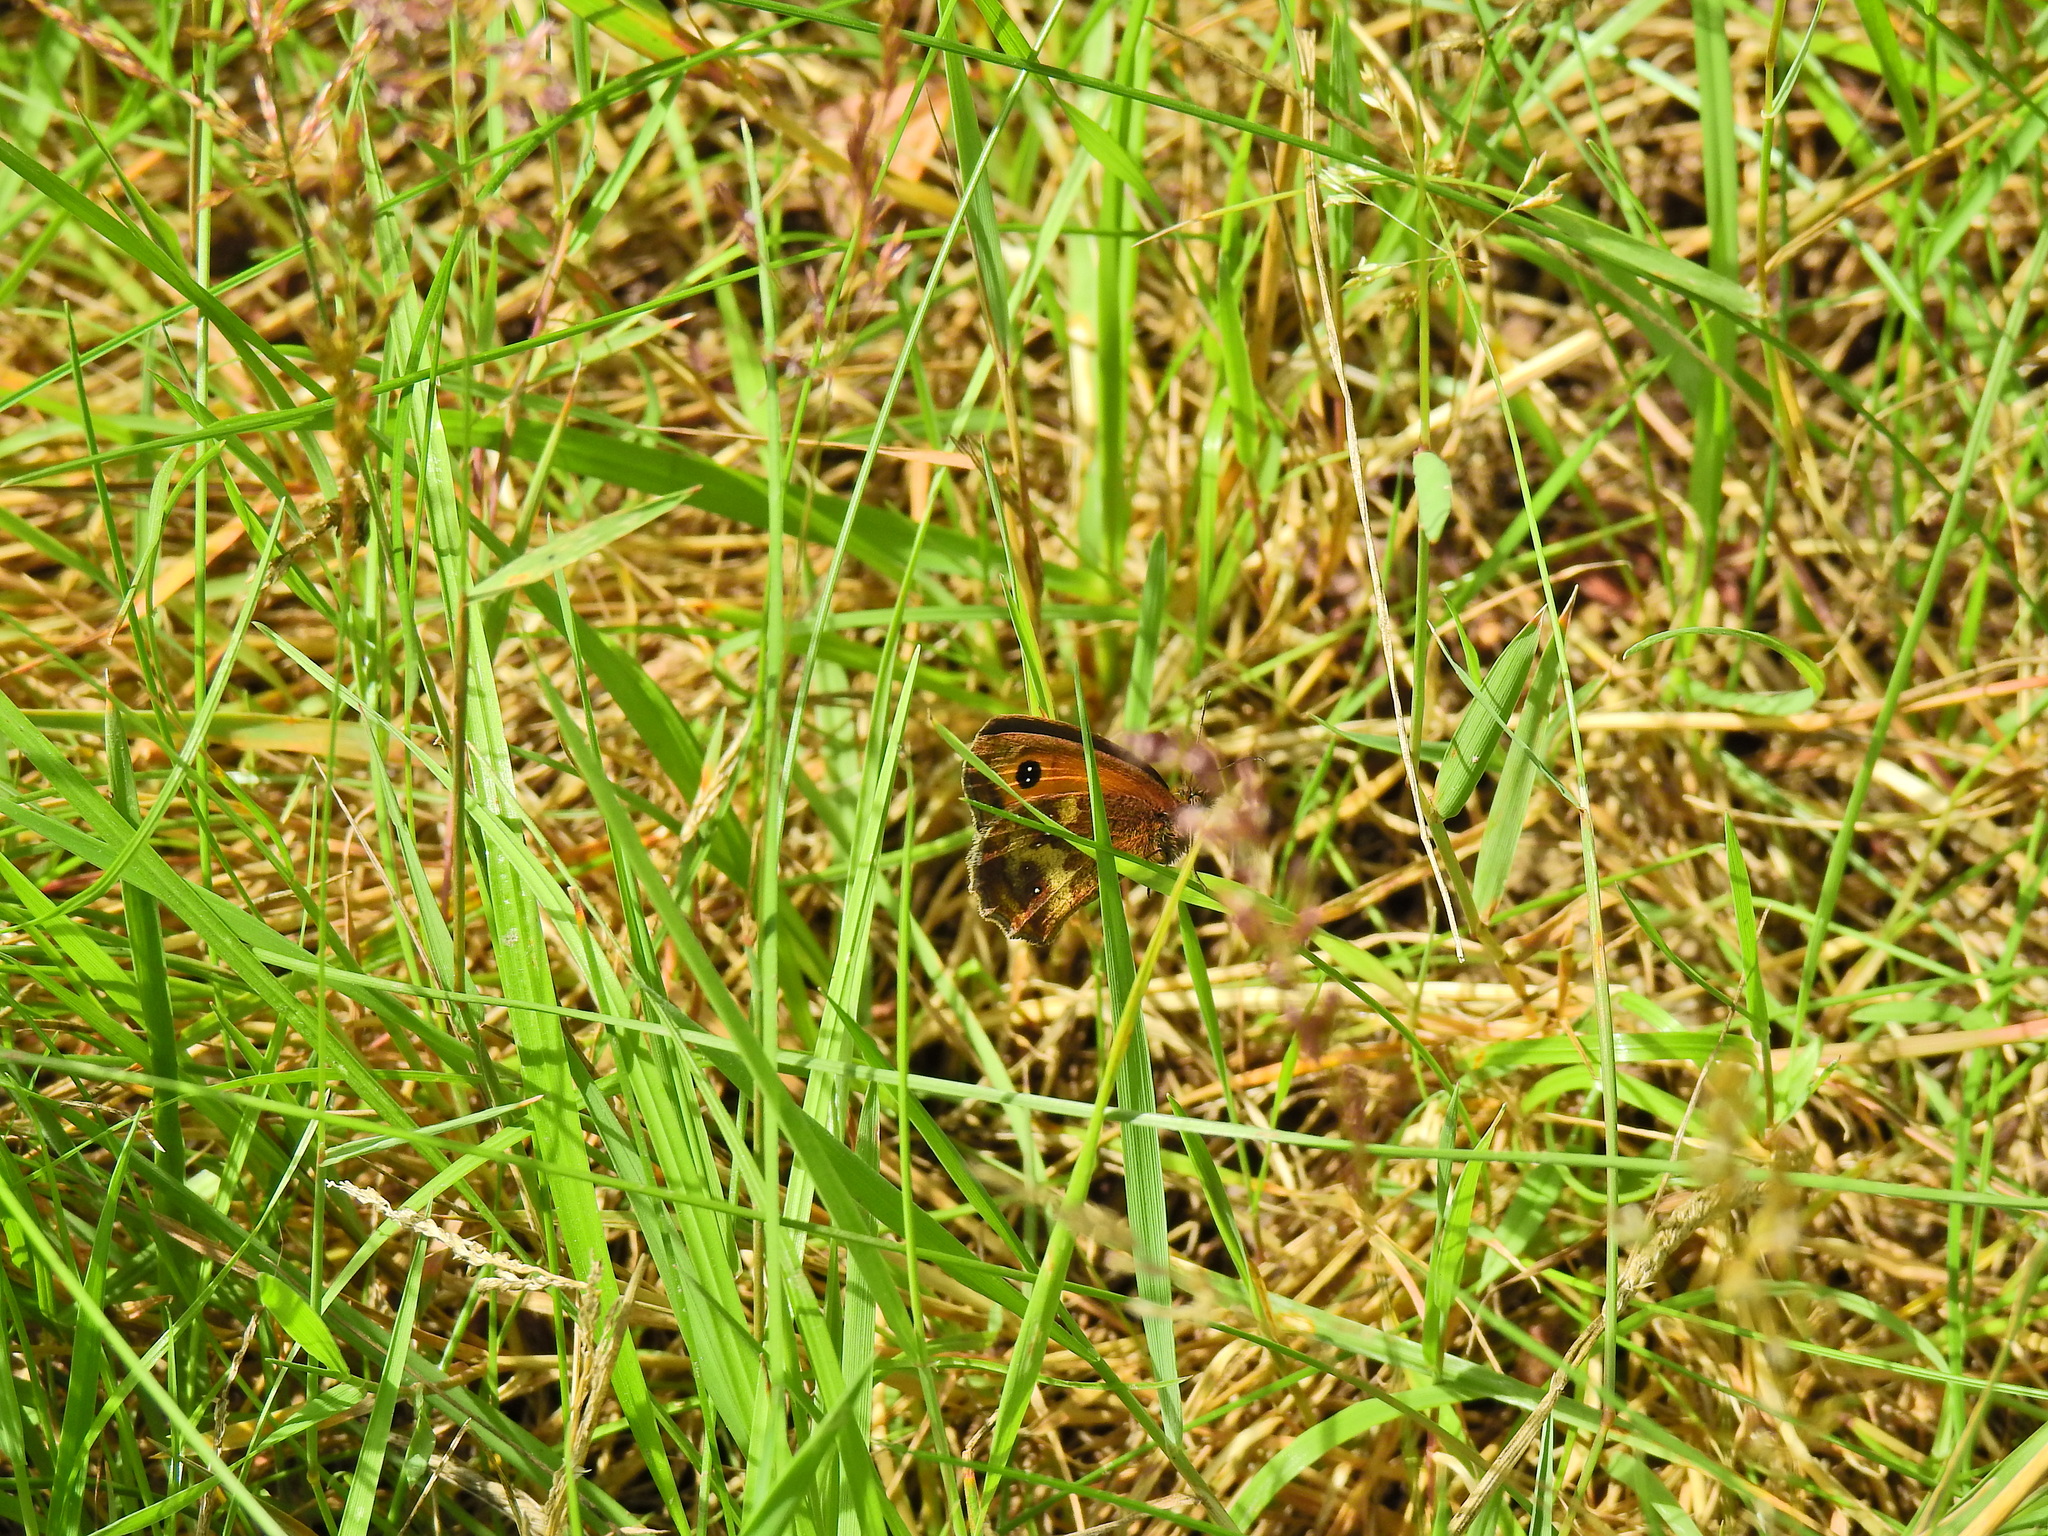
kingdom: Animalia
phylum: Arthropoda
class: Insecta
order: Lepidoptera
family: Nymphalidae
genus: Pyronia
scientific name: Pyronia tithonus
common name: Gatekeeper
